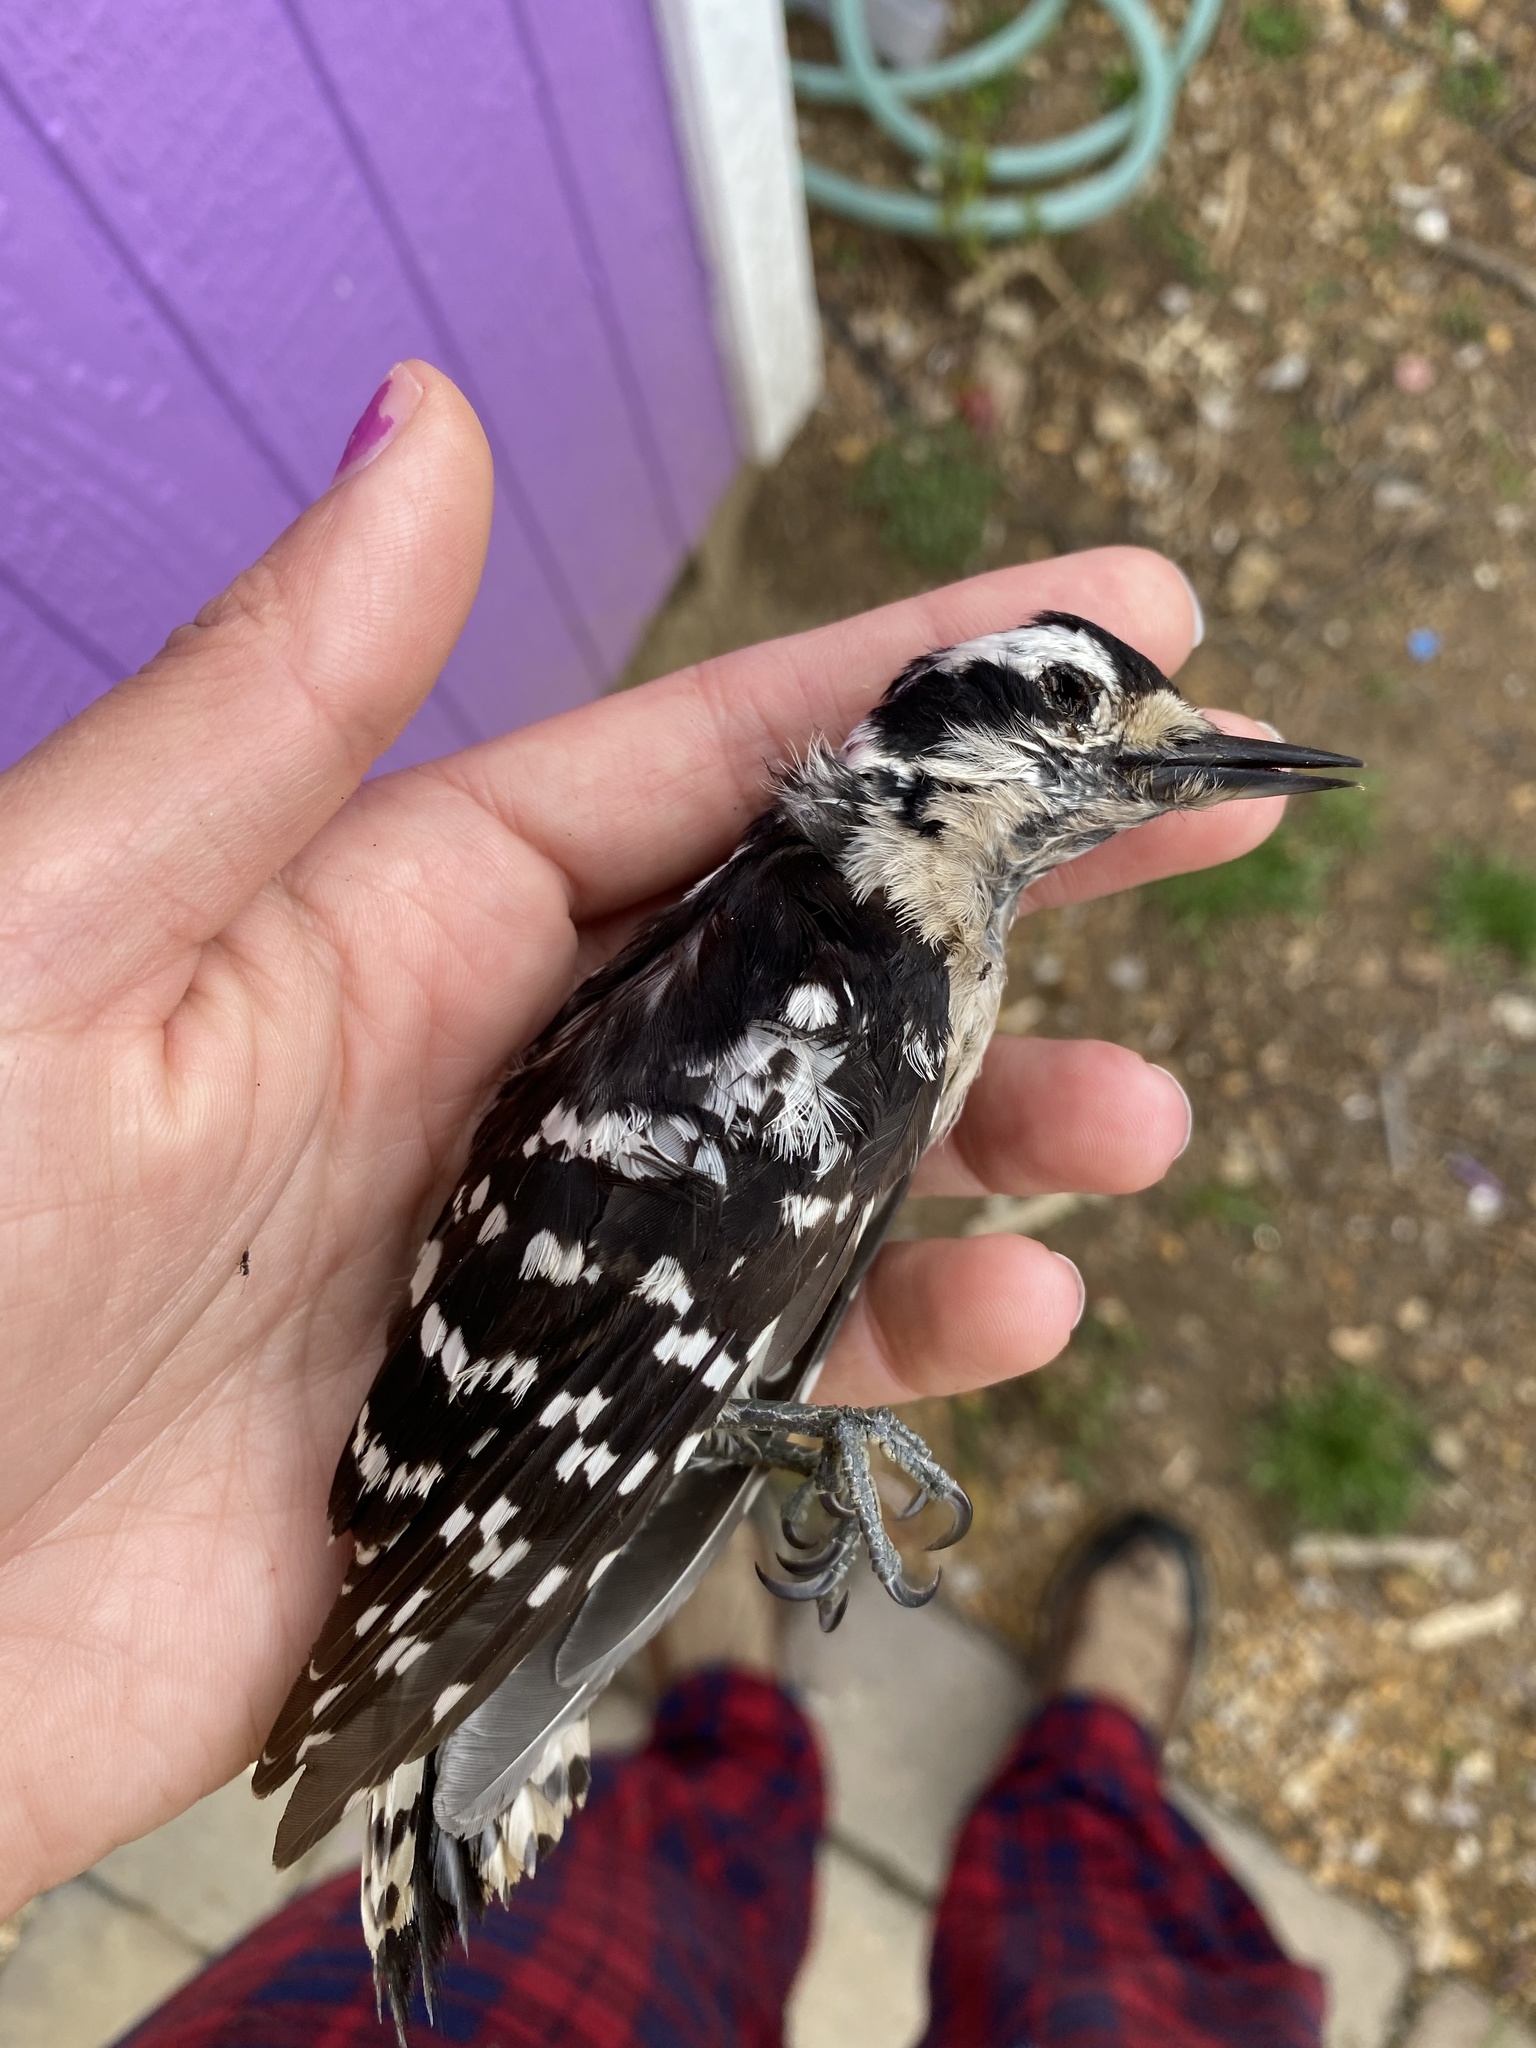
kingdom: Animalia
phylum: Chordata
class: Aves
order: Piciformes
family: Picidae
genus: Dryobates
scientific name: Dryobates pubescens
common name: Downy woodpecker
